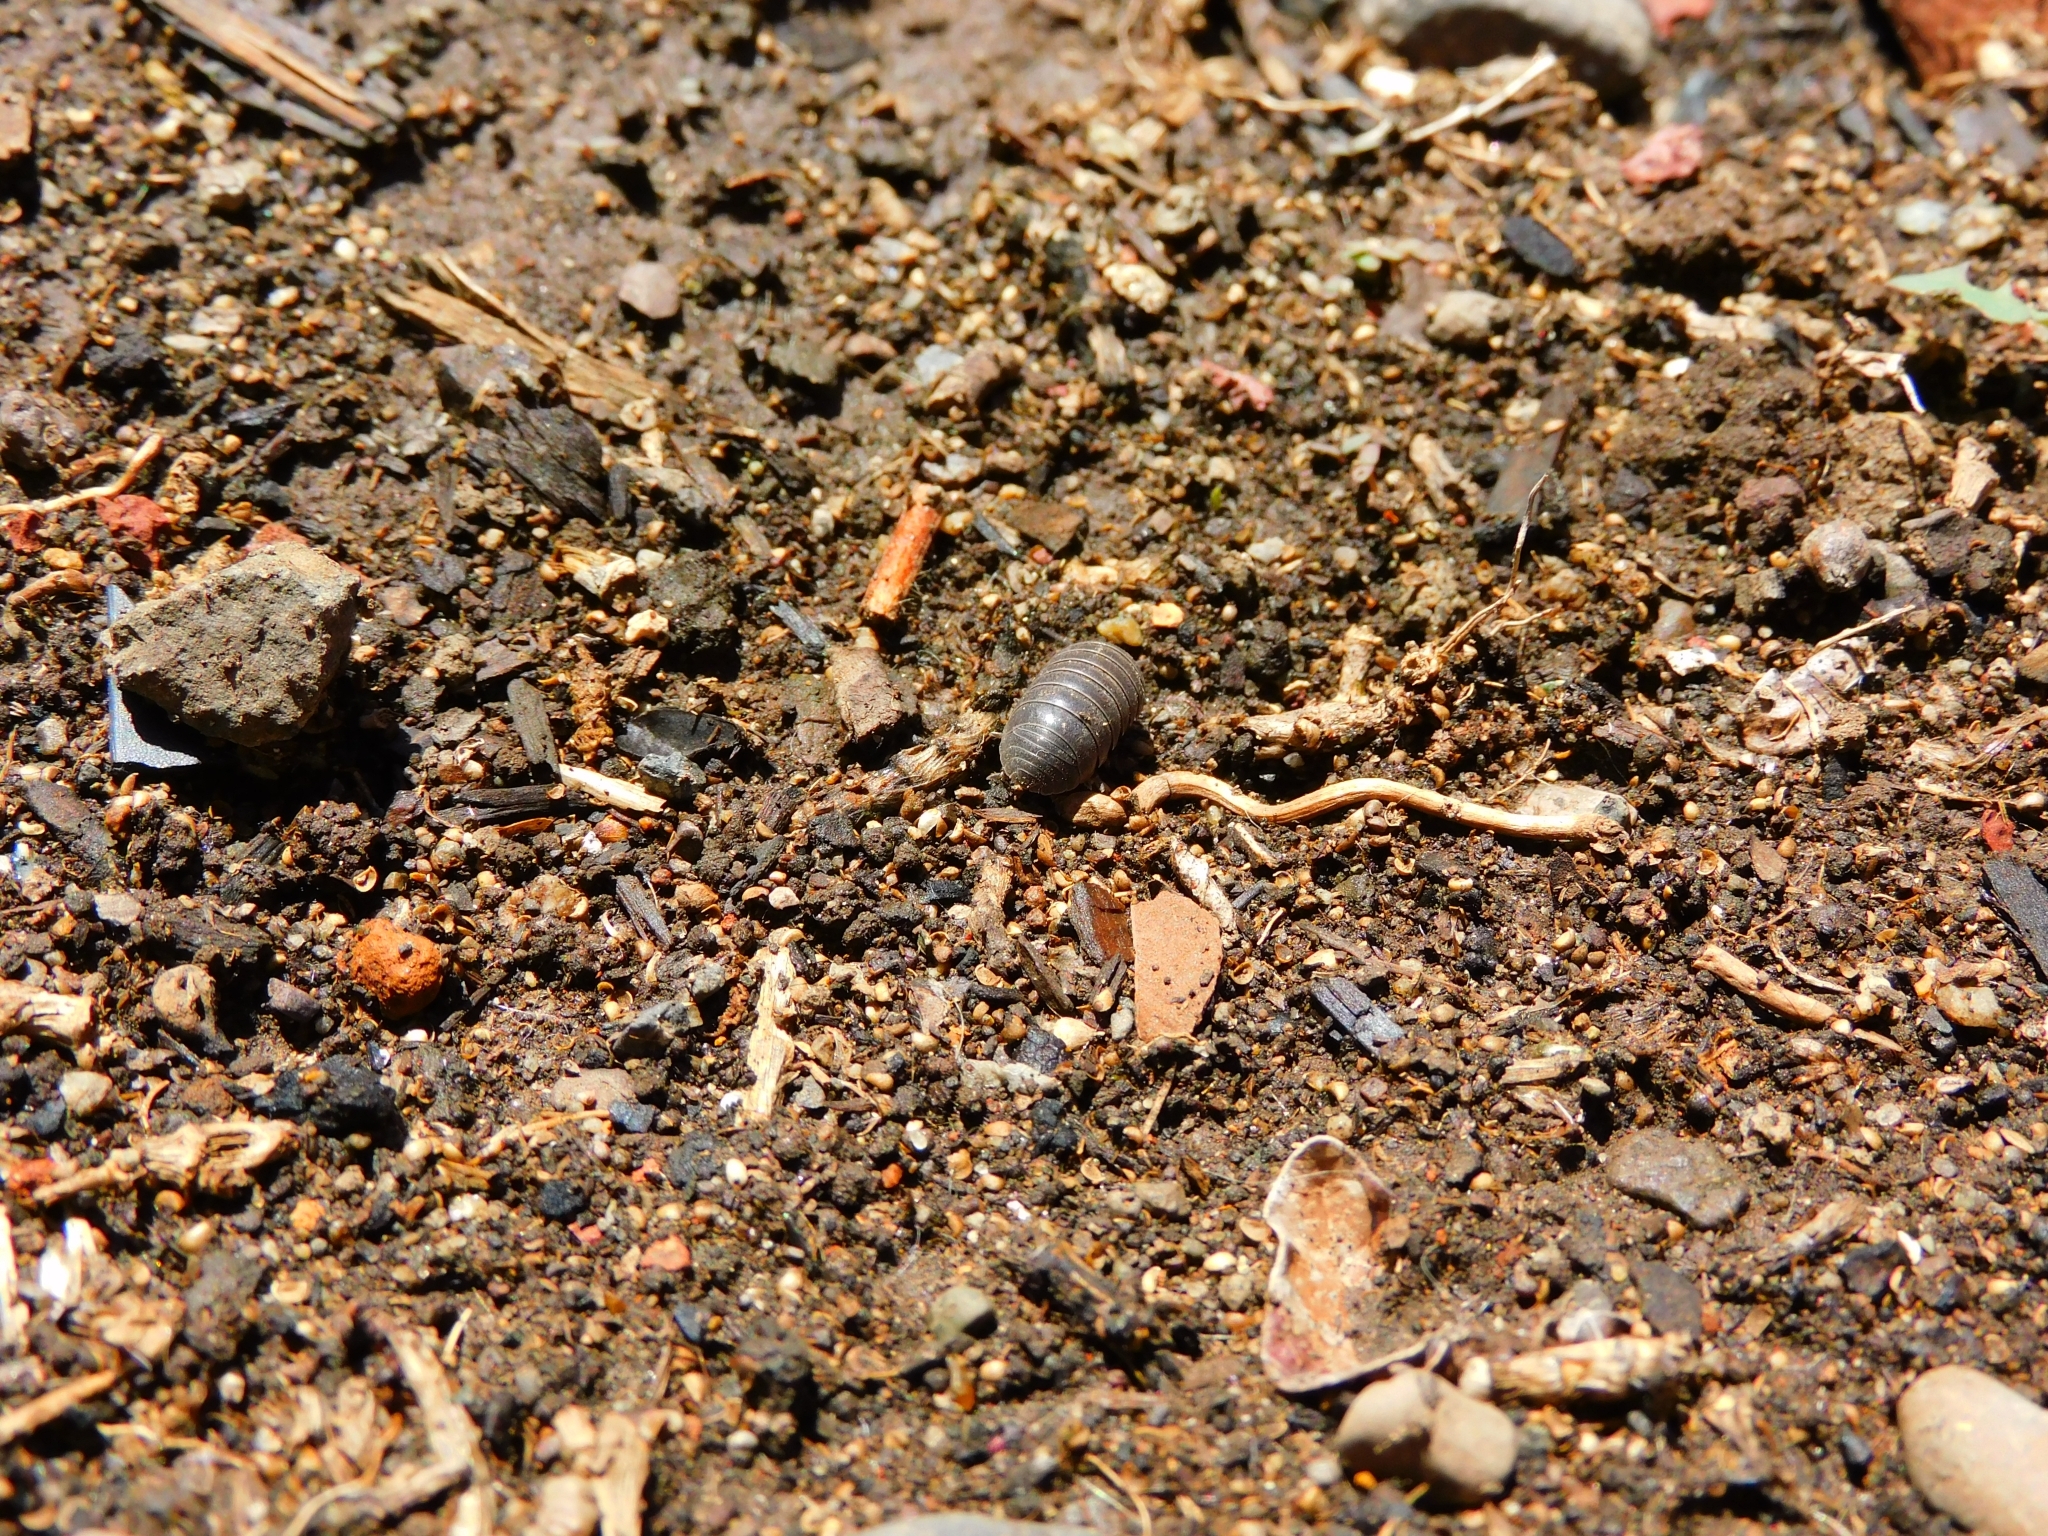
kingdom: Animalia
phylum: Arthropoda
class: Malacostraca
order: Isopoda
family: Armadillidiidae
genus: Armadillidium
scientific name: Armadillidium vulgare
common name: Common pill woodlouse
